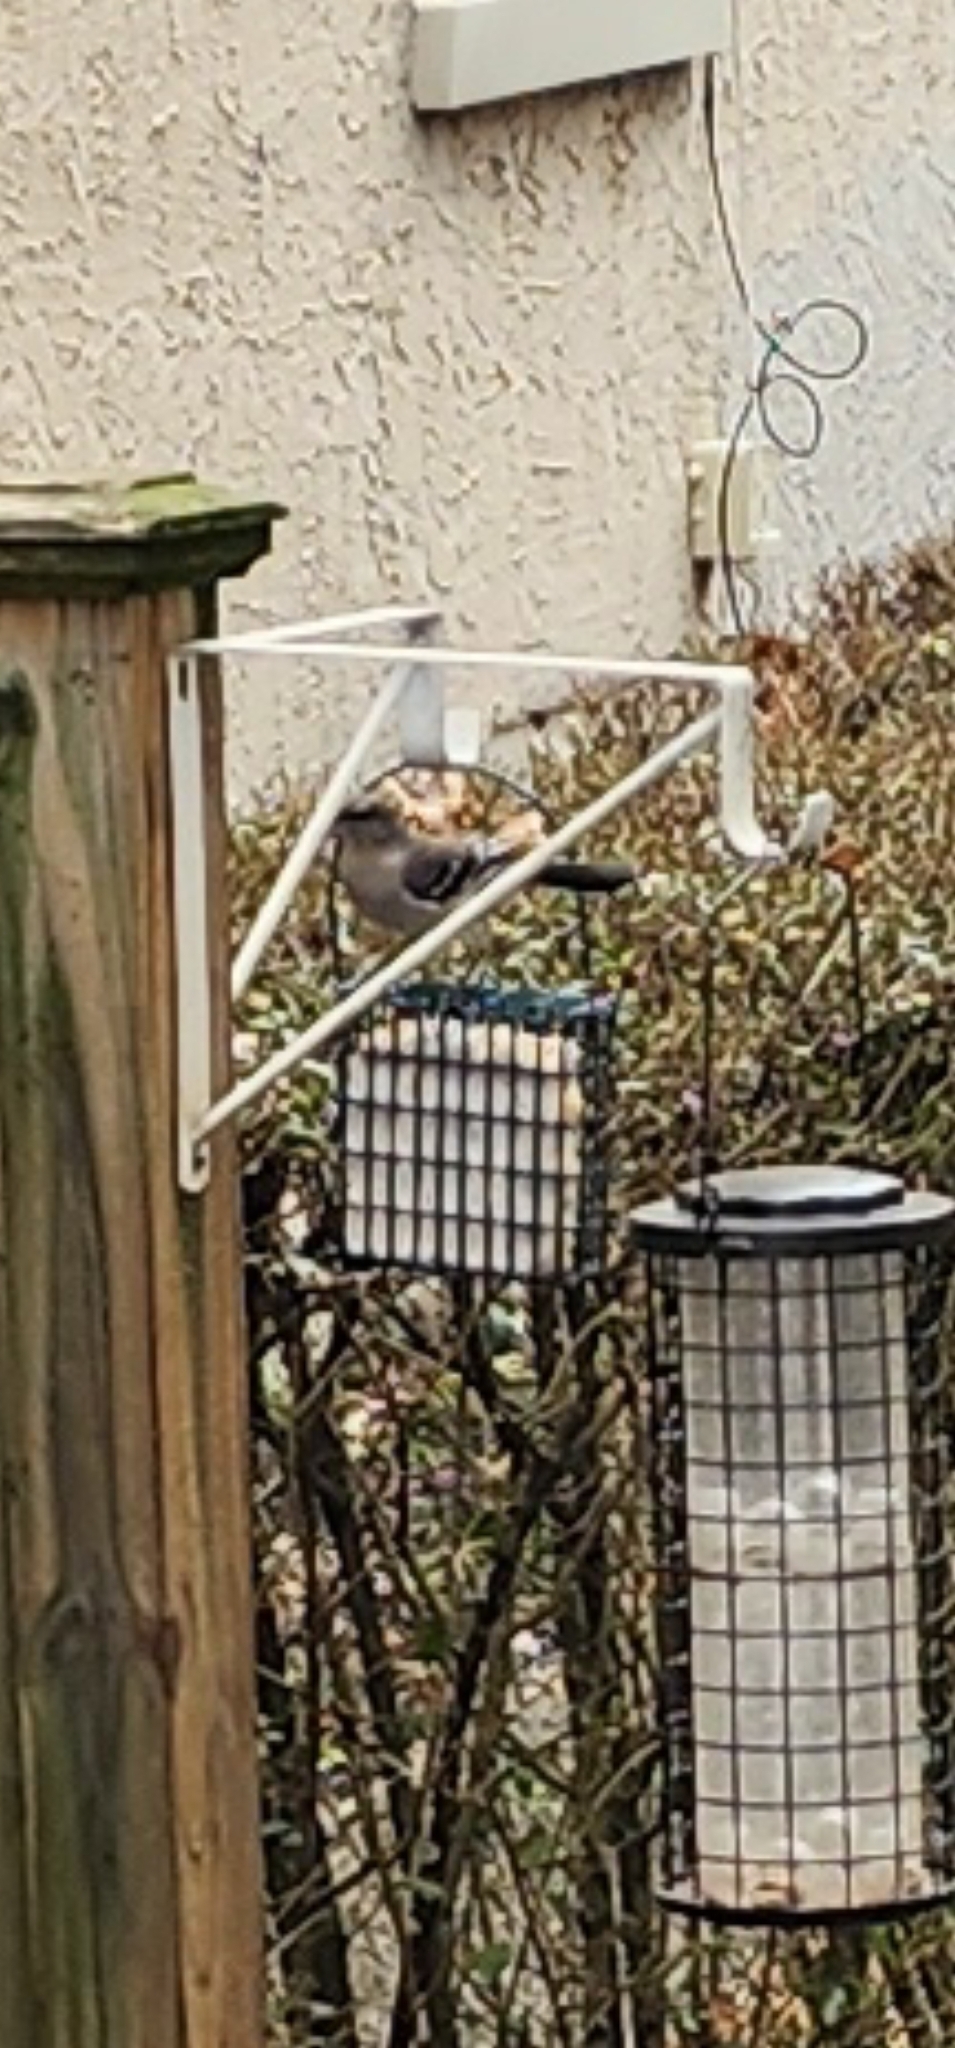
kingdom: Animalia
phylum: Chordata
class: Aves
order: Passeriformes
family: Mimidae
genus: Mimus
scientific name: Mimus polyglottos
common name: Northern mockingbird
